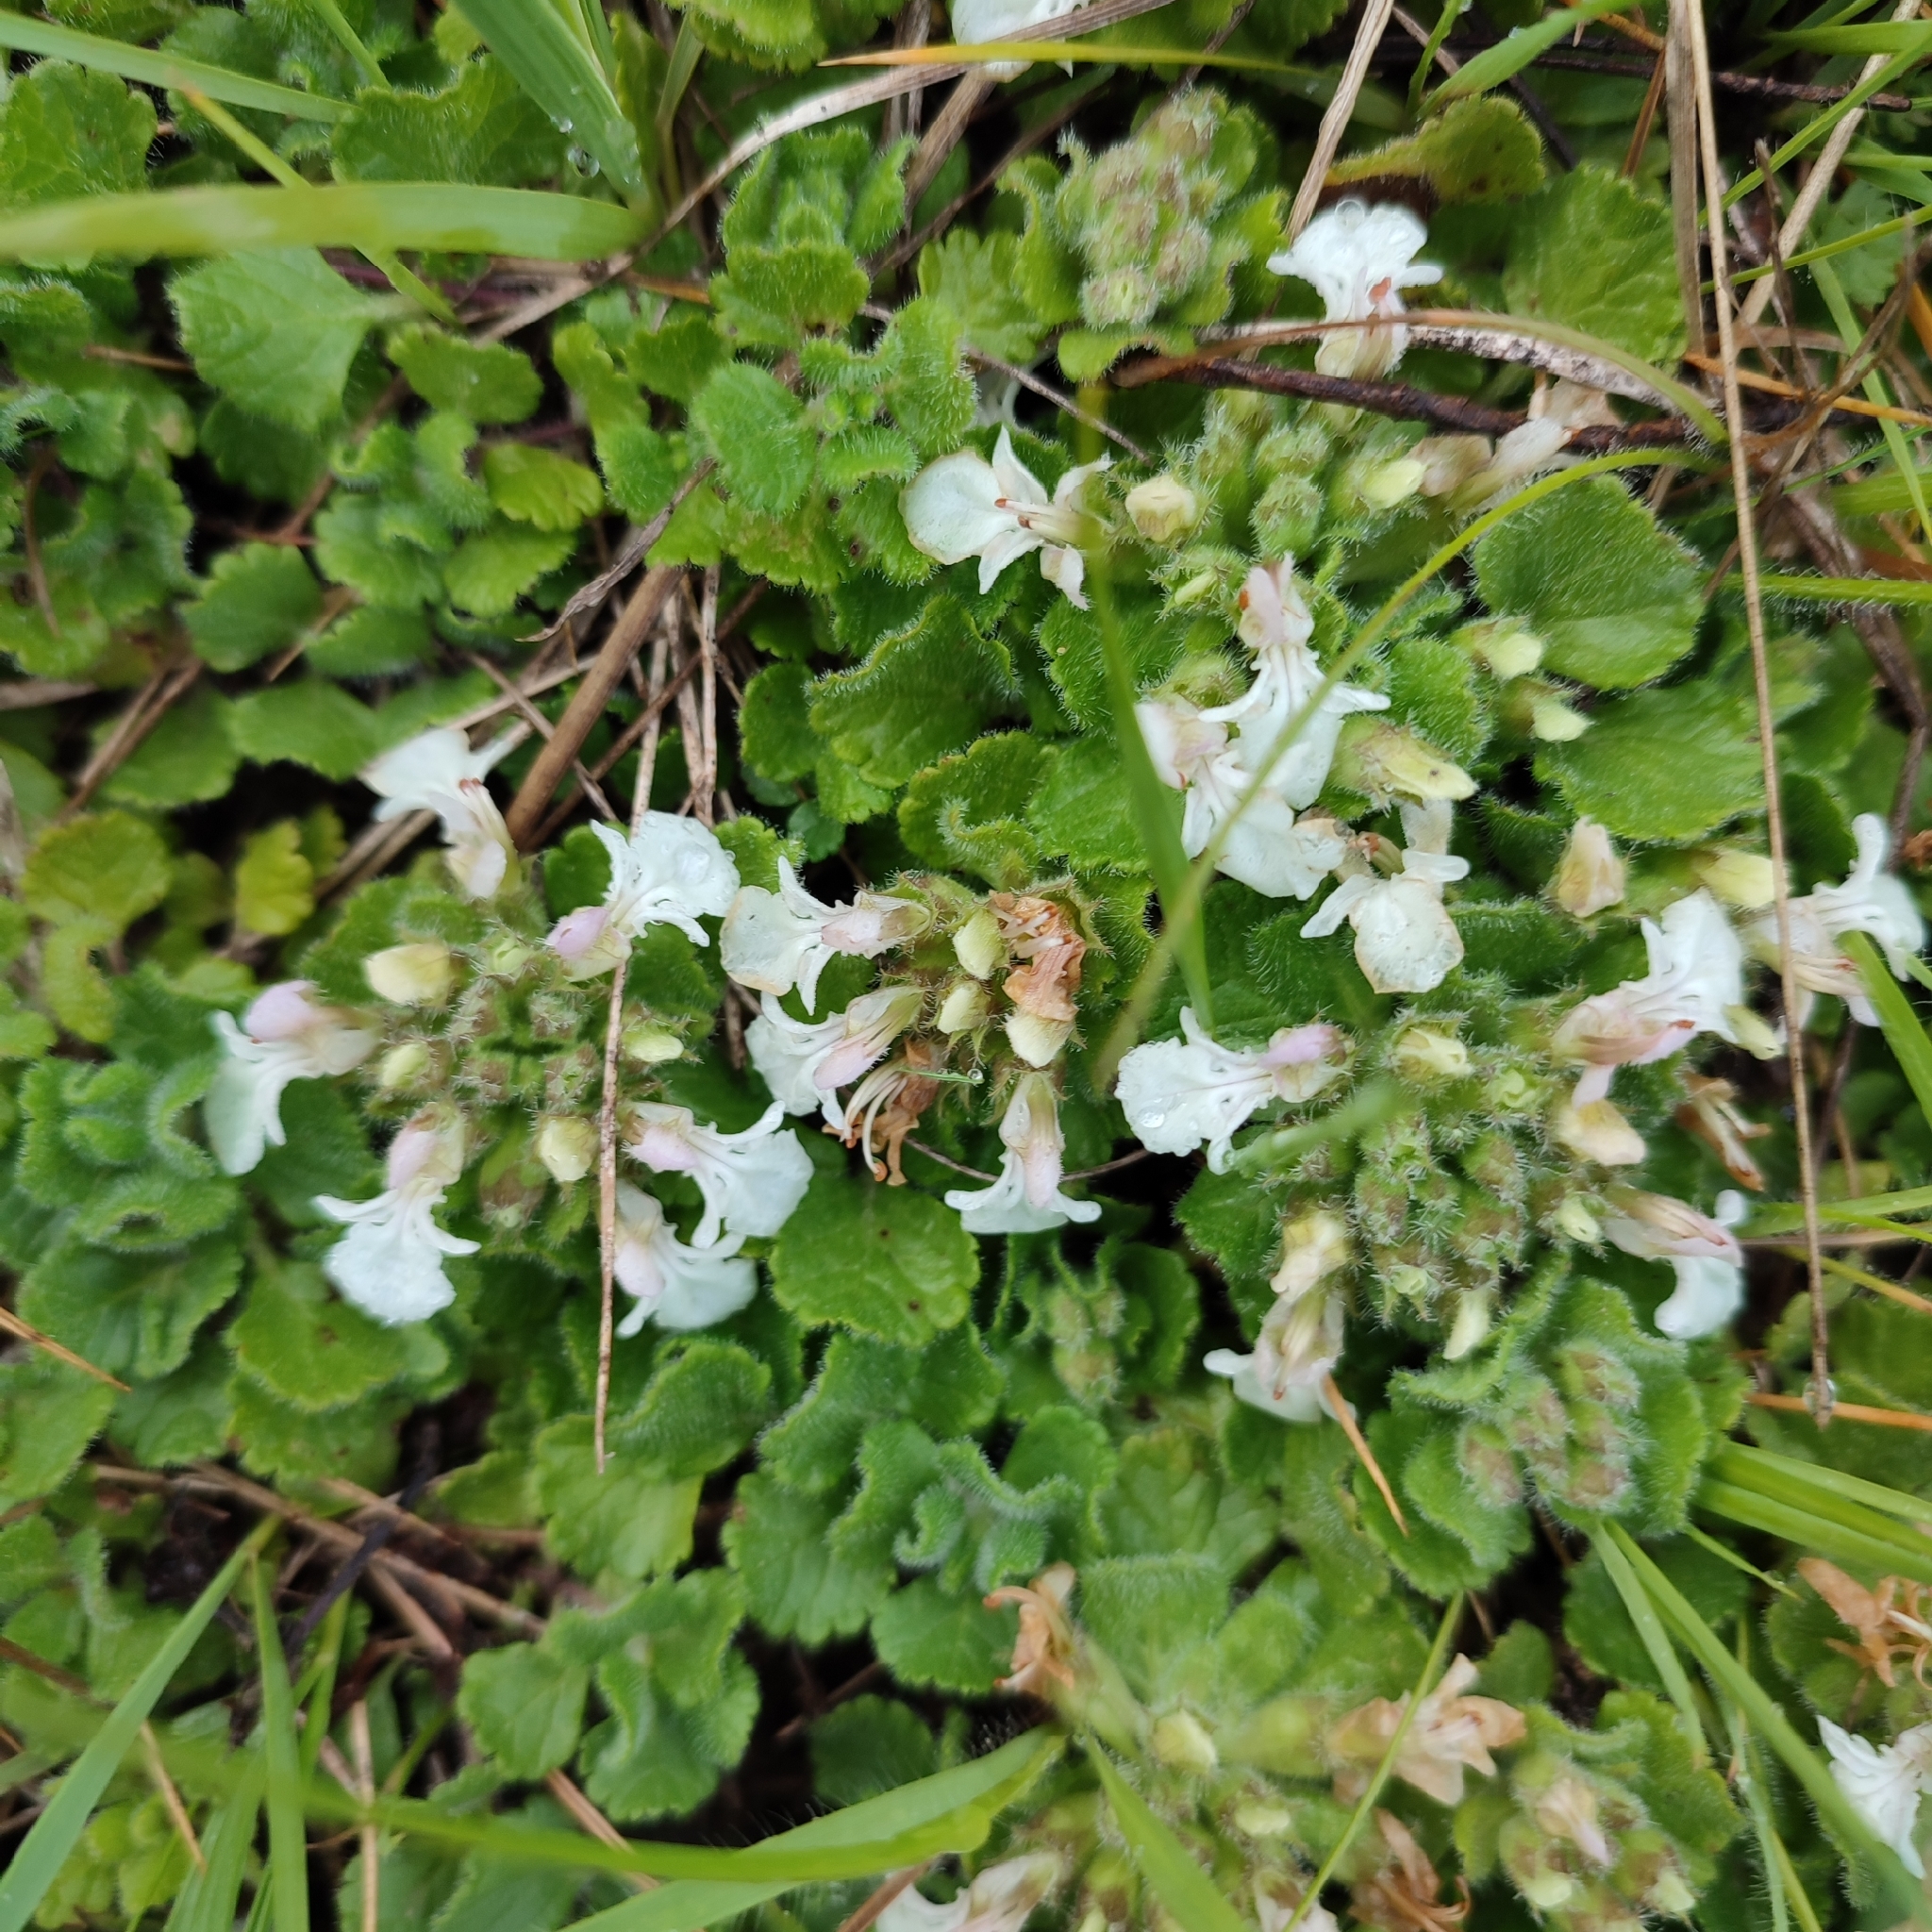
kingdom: Plantae
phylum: Tracheophyta
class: Magnoliopsida
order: Lamiales
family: Lamiaceae
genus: Teucrium
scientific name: Teucrium pyrenaicum
